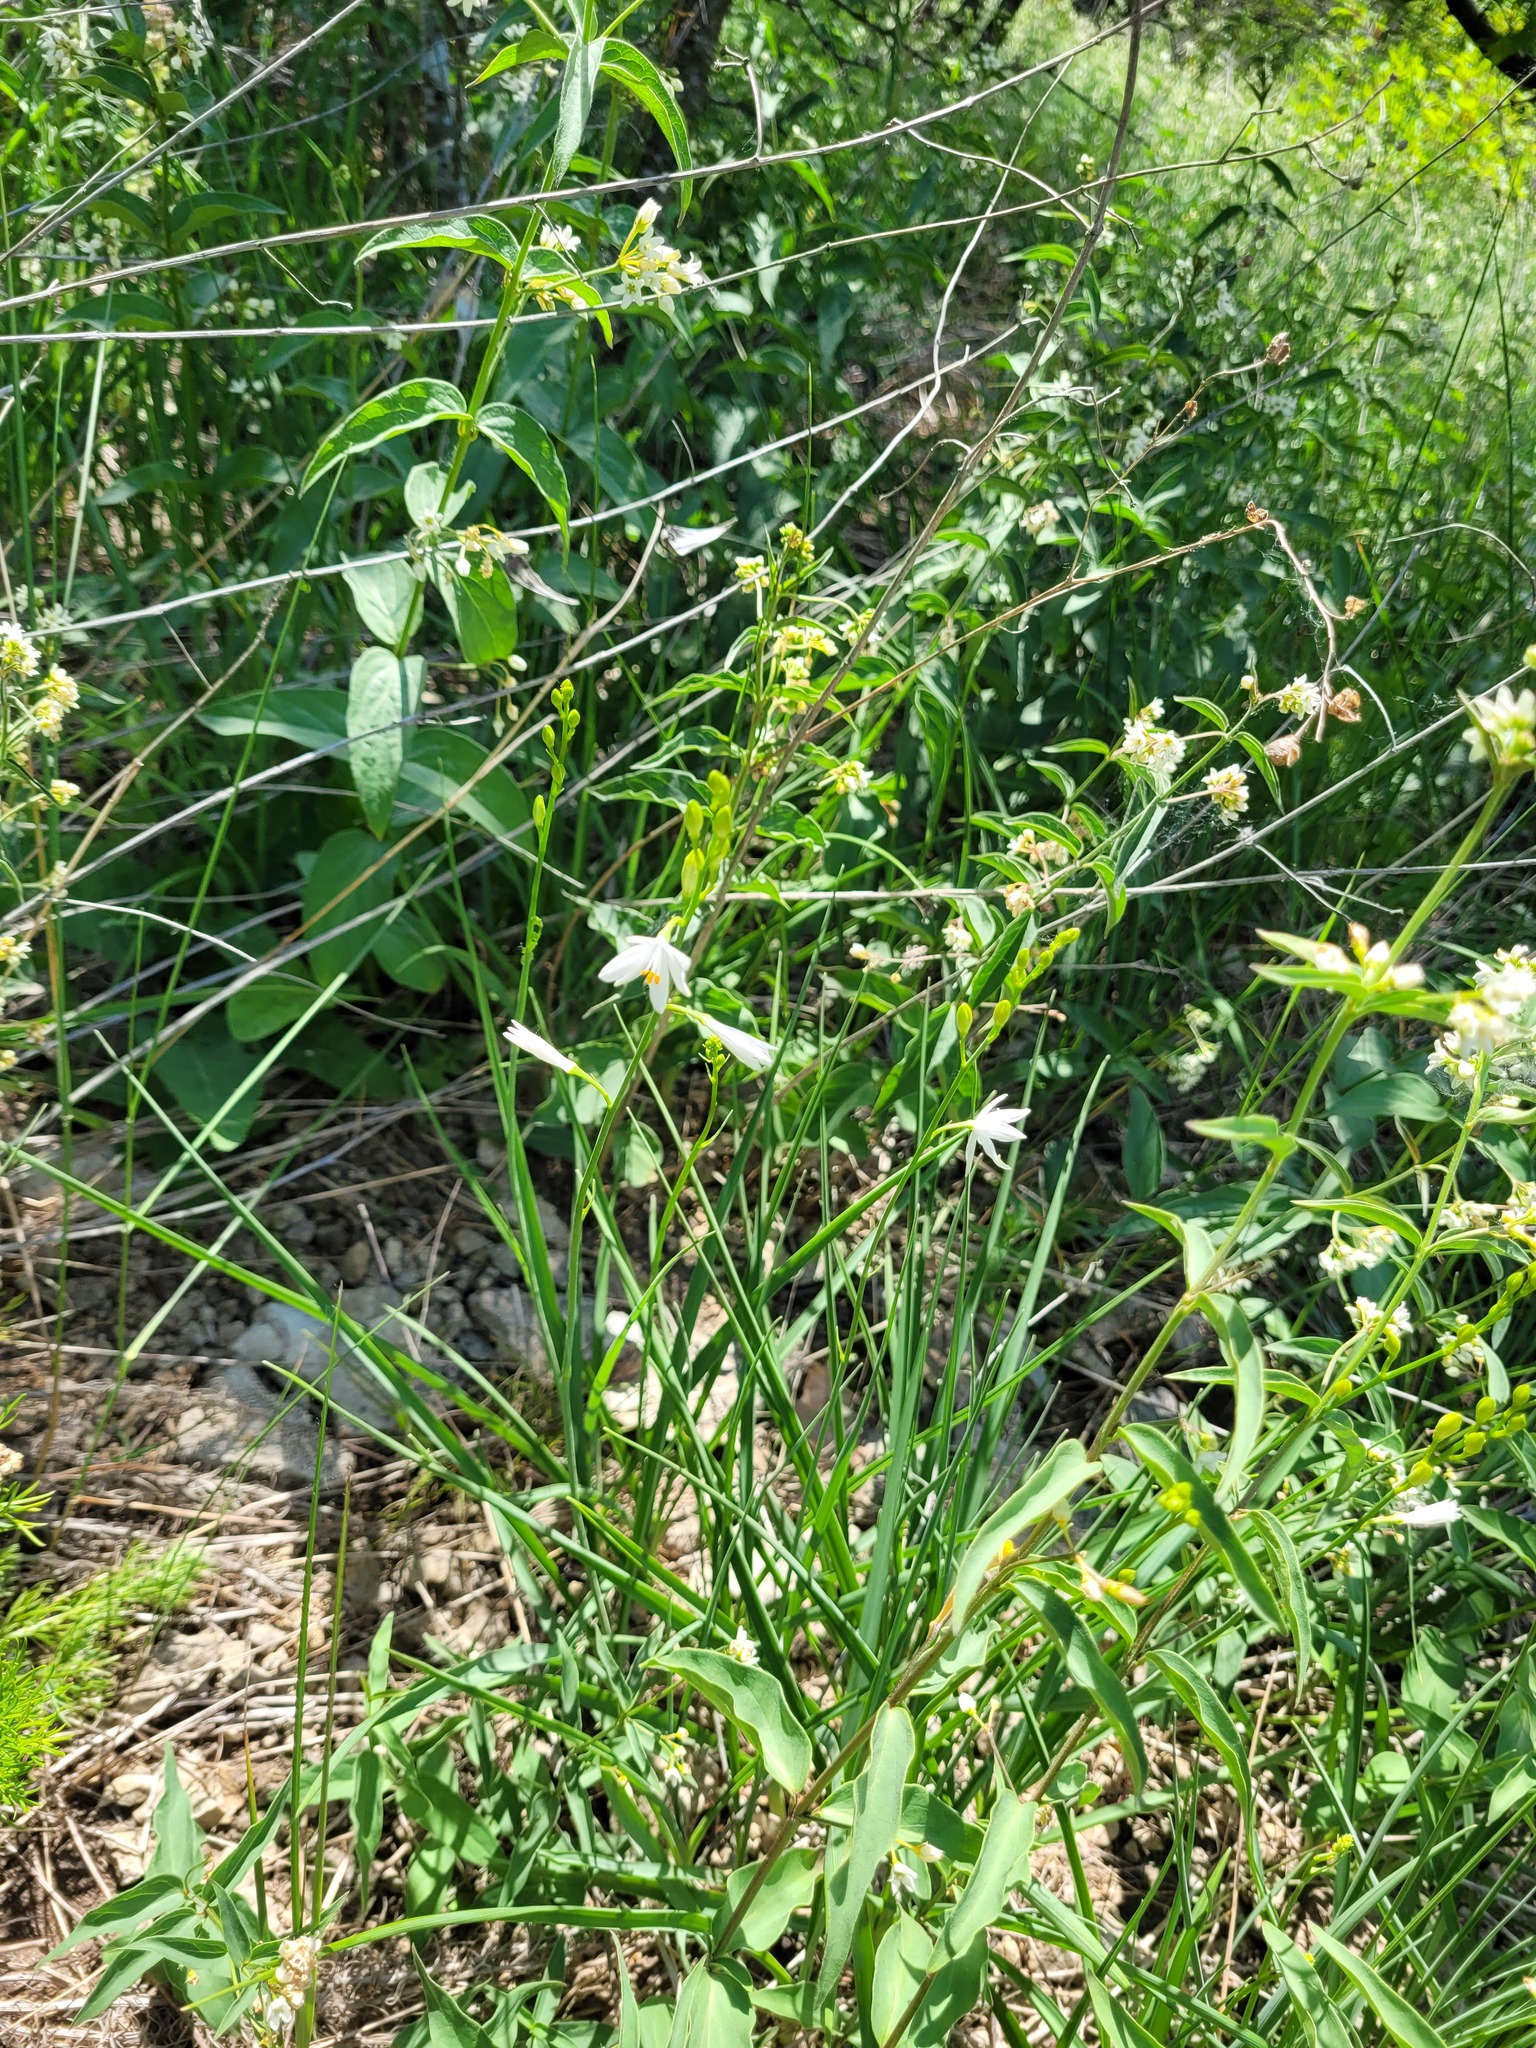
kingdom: Plantae
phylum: Tracheophyta
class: Liliopsida
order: Asparagales
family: Asparagaceae
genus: Anthericum
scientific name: Anthericum ramosum
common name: Branched st. bernard's-lily
